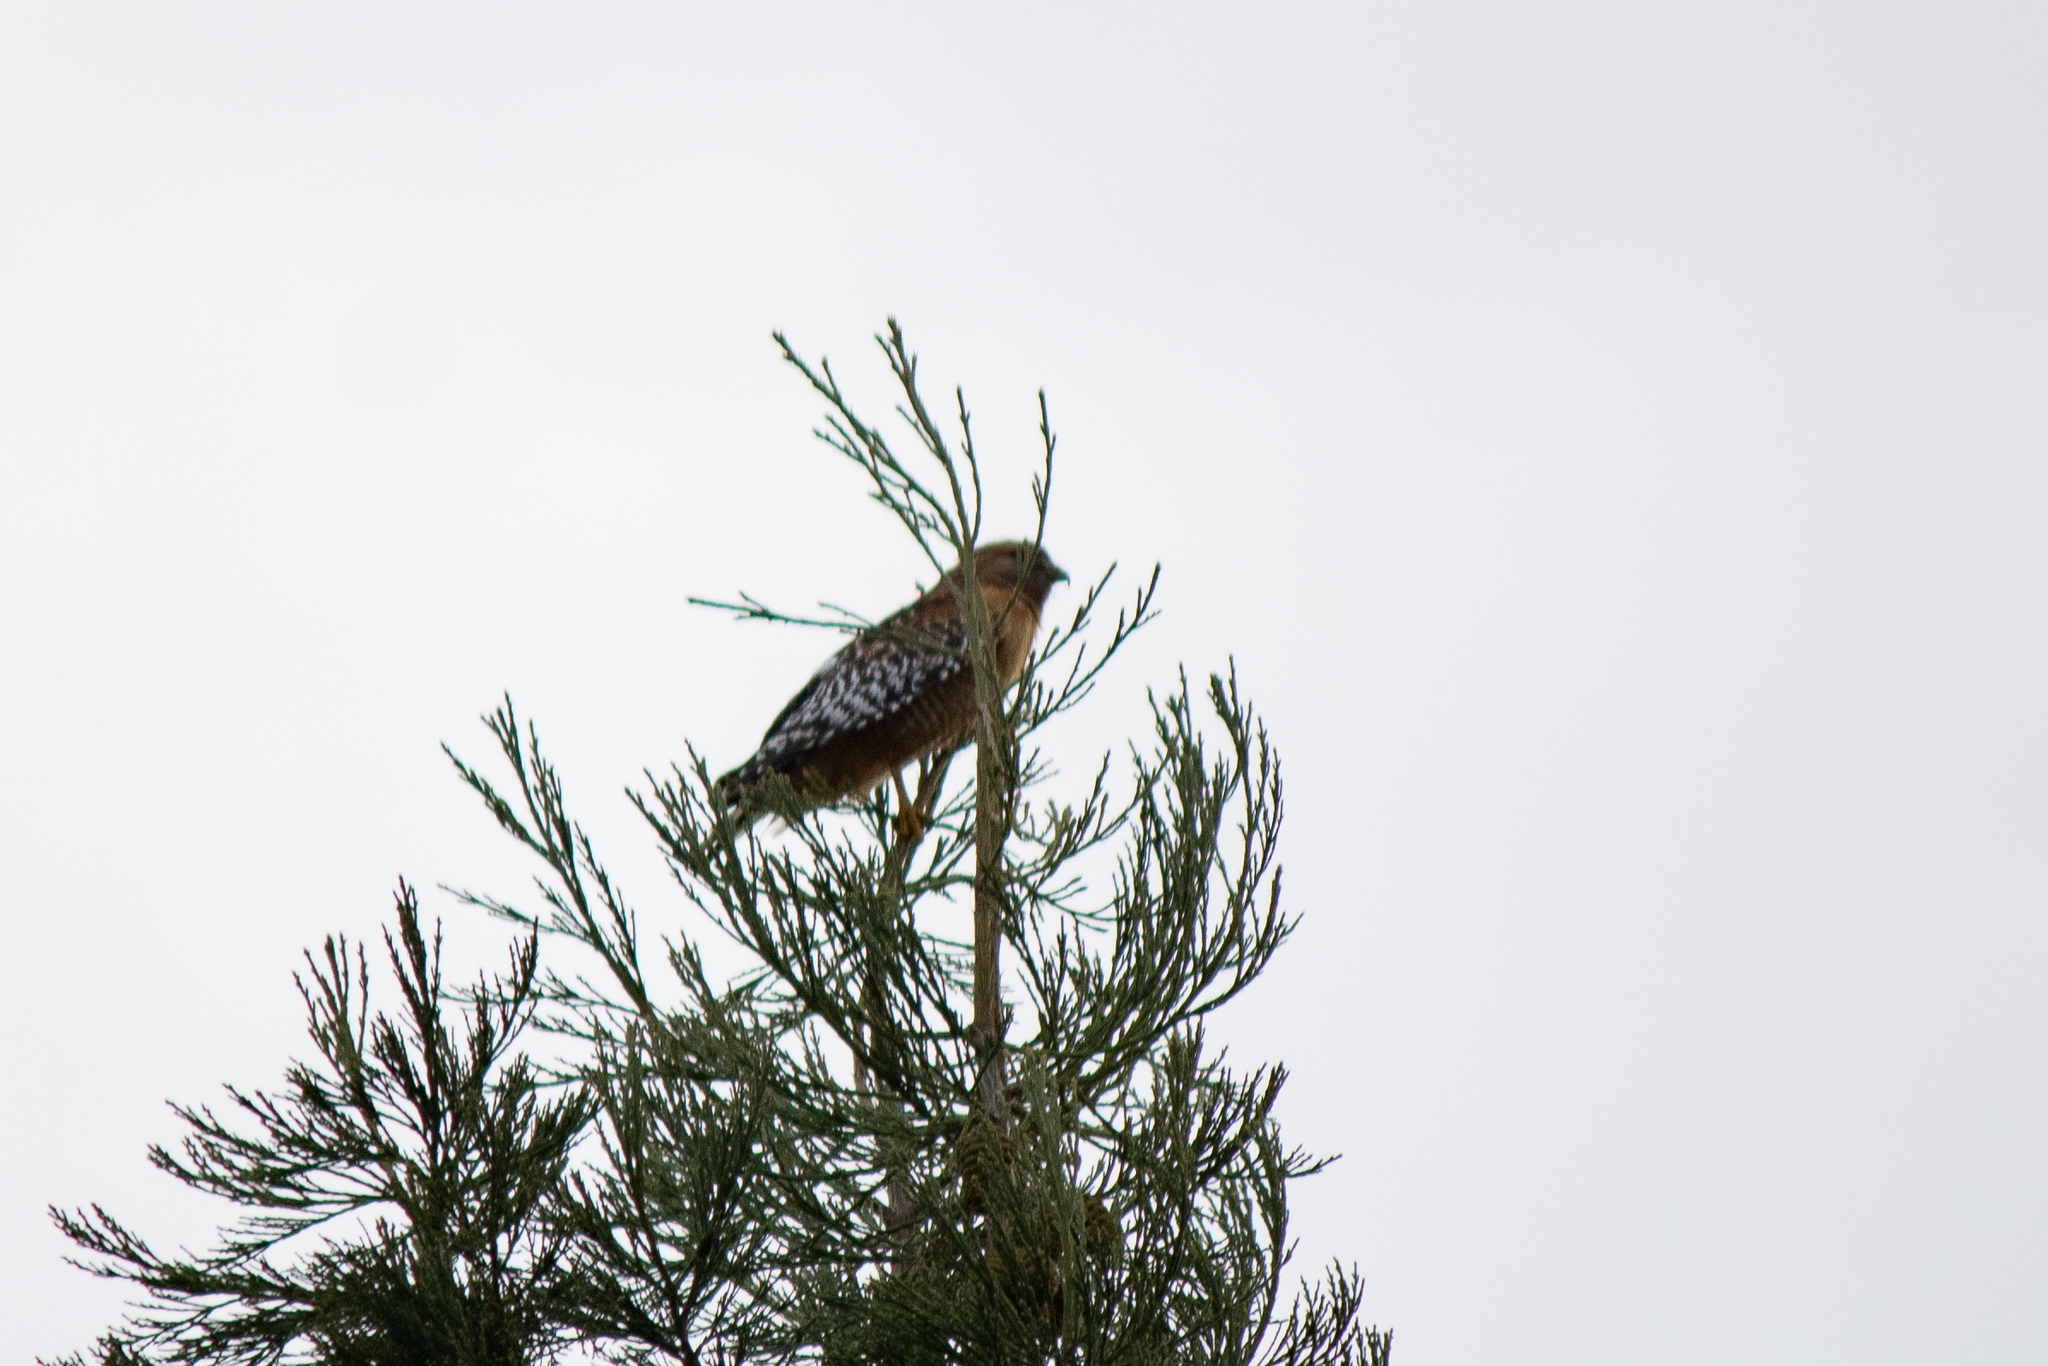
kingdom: Animalia
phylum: Chordata
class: Aves
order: Accipitriformes
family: Accipitridae
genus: Buteo
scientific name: Buteo lineatus
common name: Red-shouldered hawk
